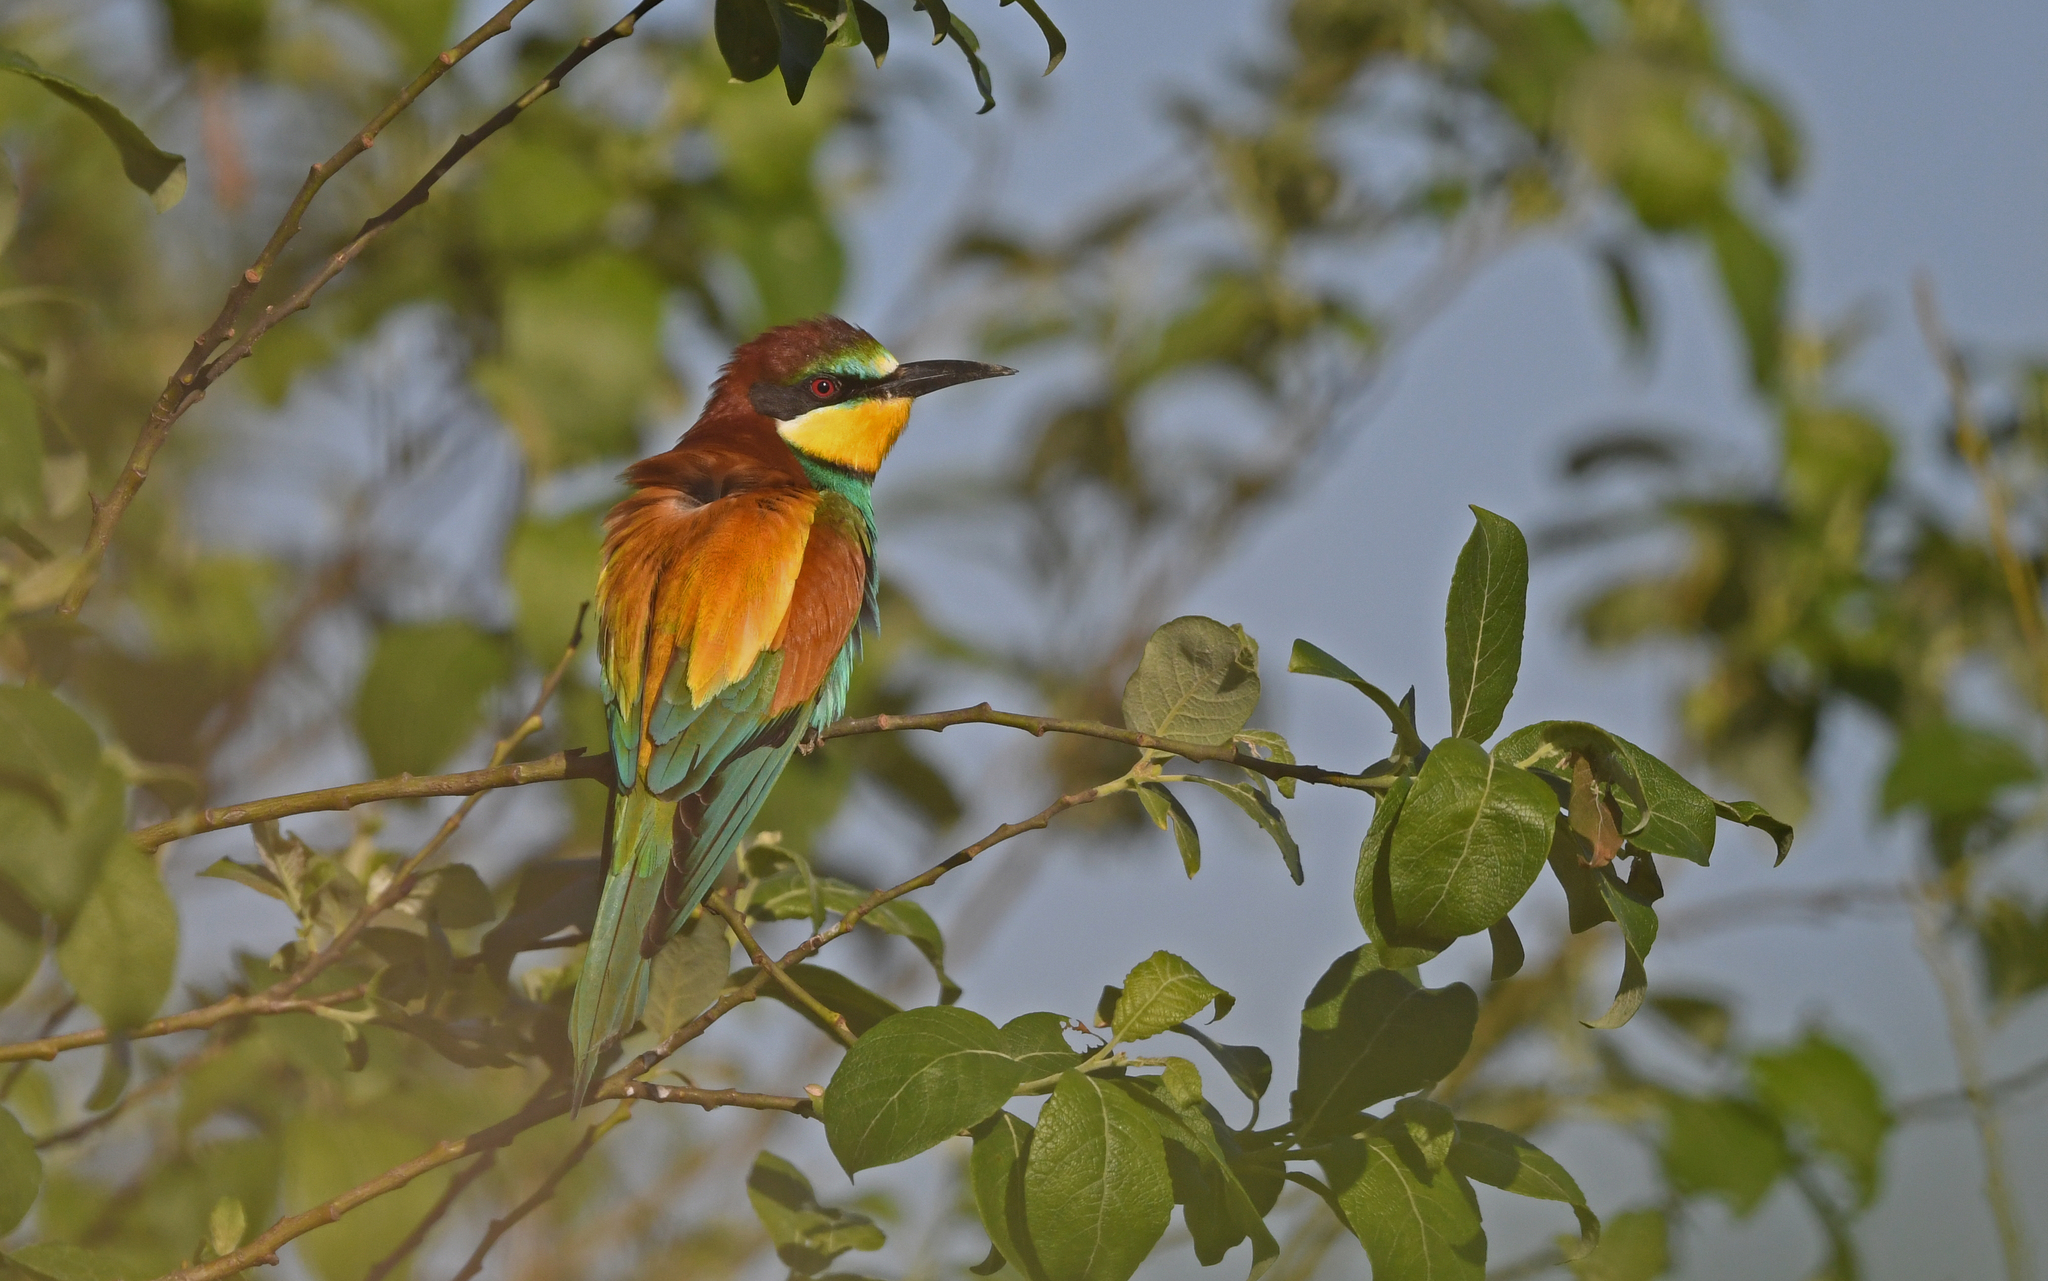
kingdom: Animalia
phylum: Chordata
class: Aves
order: Coraciiformes
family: Meropidae
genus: Merops
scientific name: Merops apiaster
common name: European bee-eater
